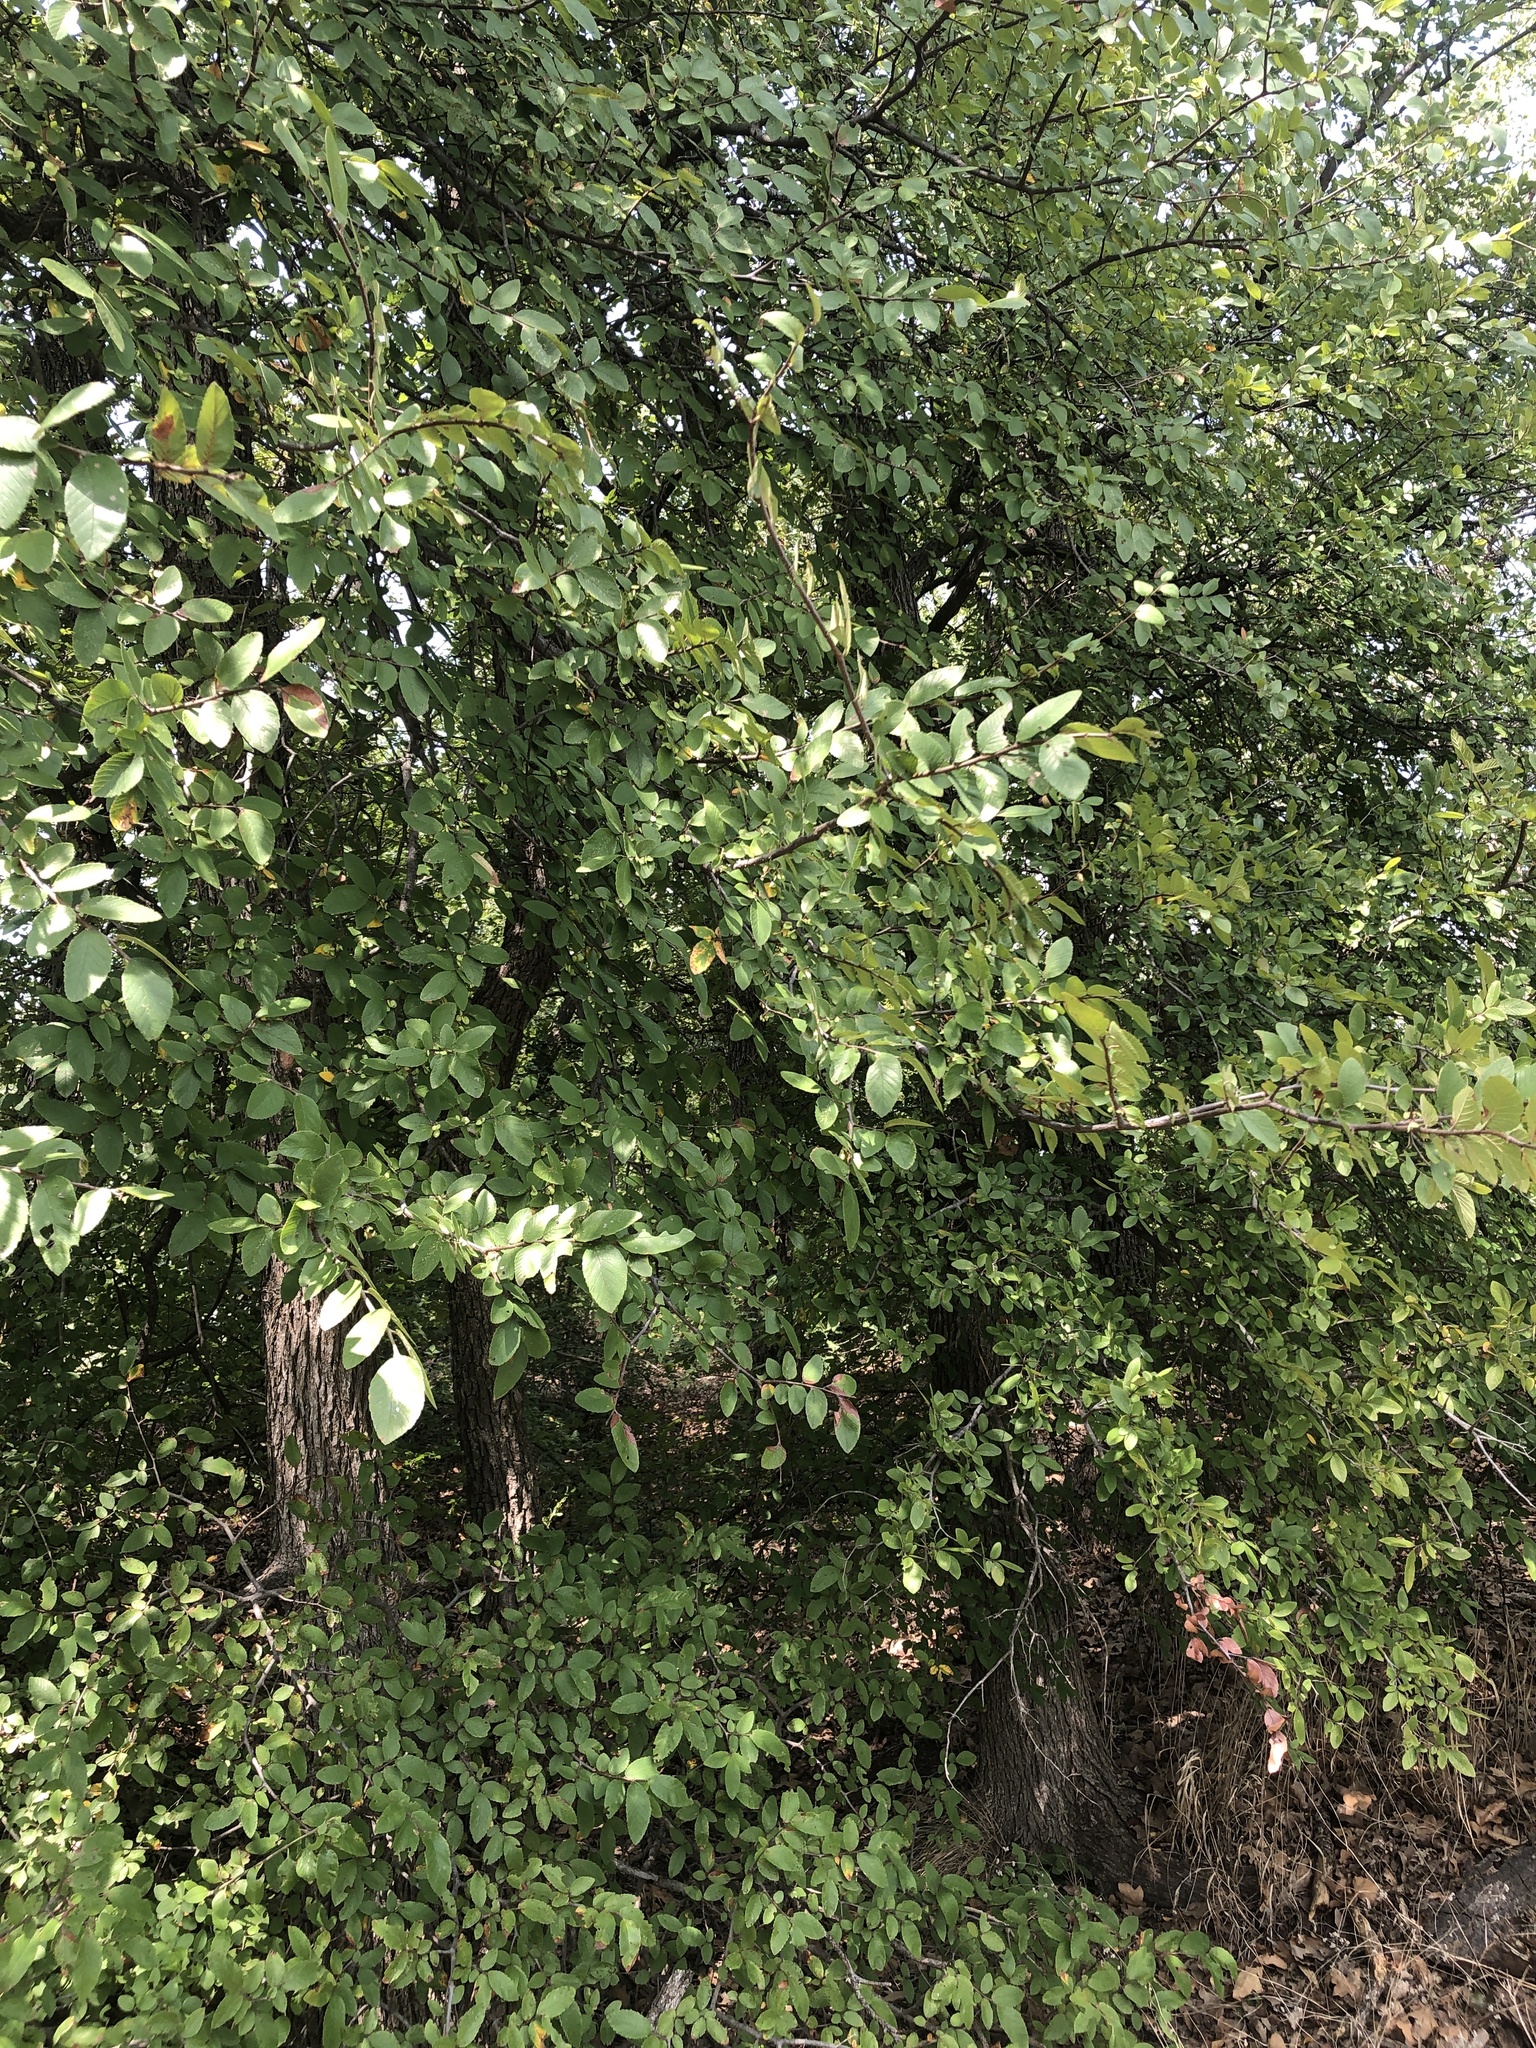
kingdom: Plantae
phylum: Tracheophyta
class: Magnoliopsida
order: Rosales
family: Ulmaceae
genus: Ulmus
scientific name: Ulmus crassifolia
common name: Basket elm
